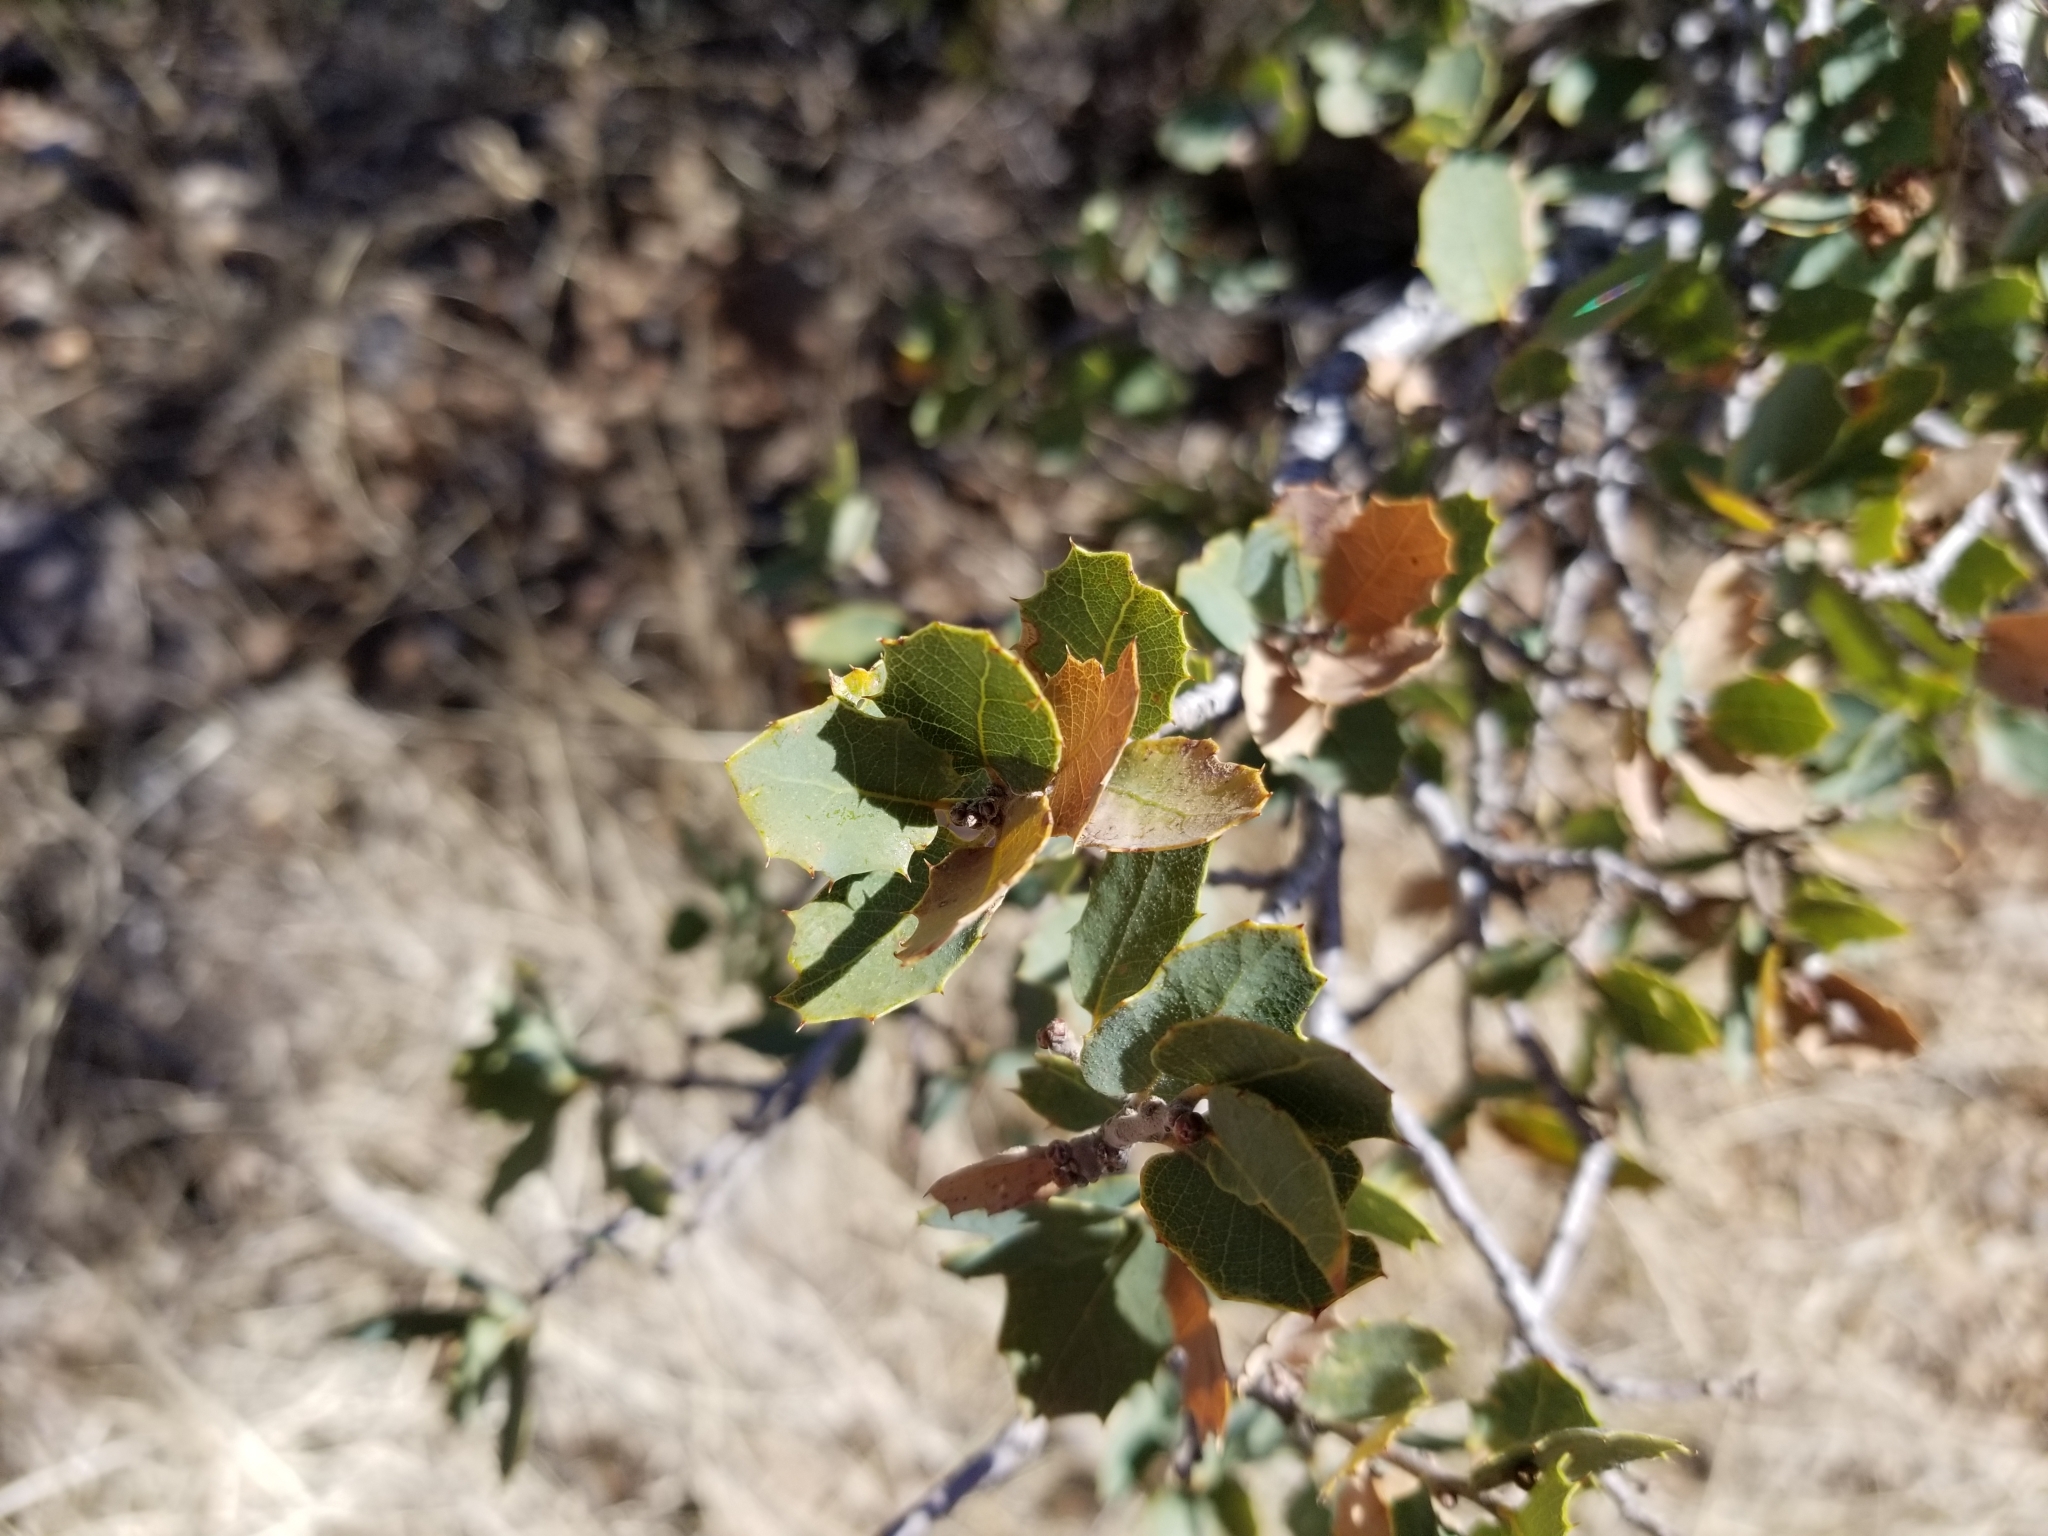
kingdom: Plantae
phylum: Tracheophyta
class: Magnoliopsida
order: Fagales
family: Fagaceae
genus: Quercus
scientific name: Quercus turbinella
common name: Sonoran scrub oak
